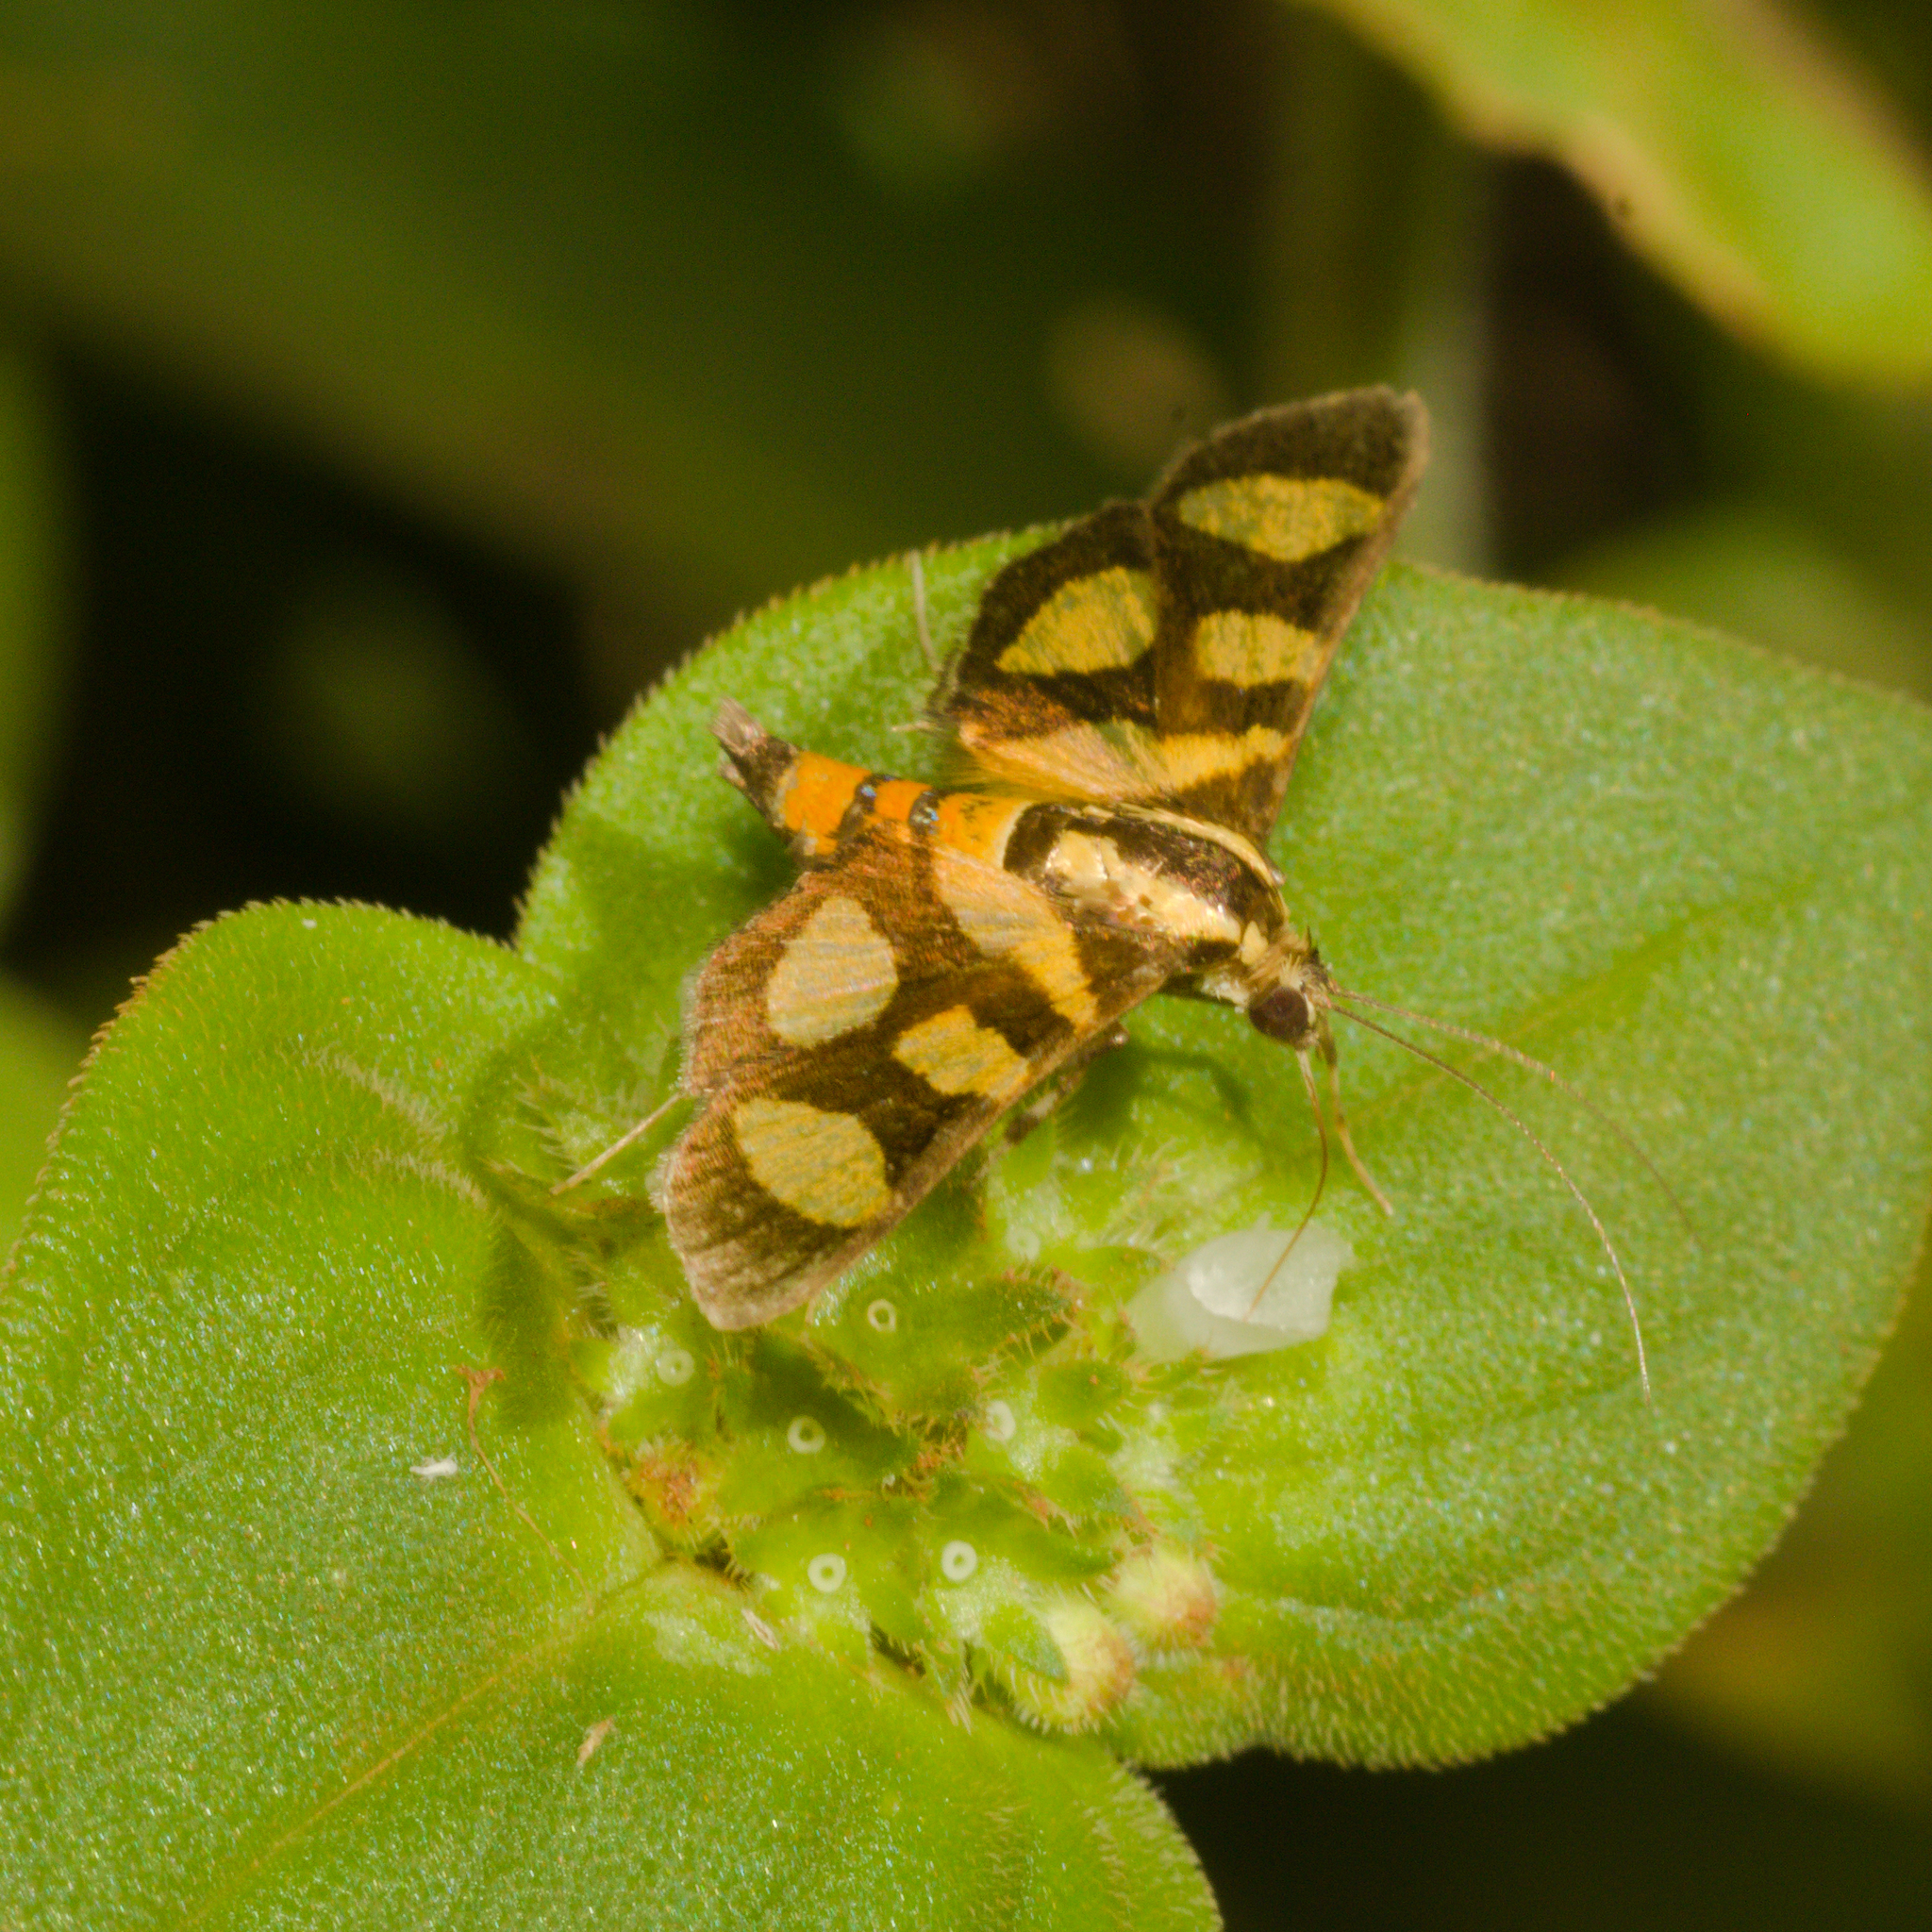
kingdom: Animalia
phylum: Arthropoda
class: Insecta
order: Lepidoptera
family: Crambidae
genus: Syngamia
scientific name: Syngamia florella
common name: Orange-spotted flower moth
